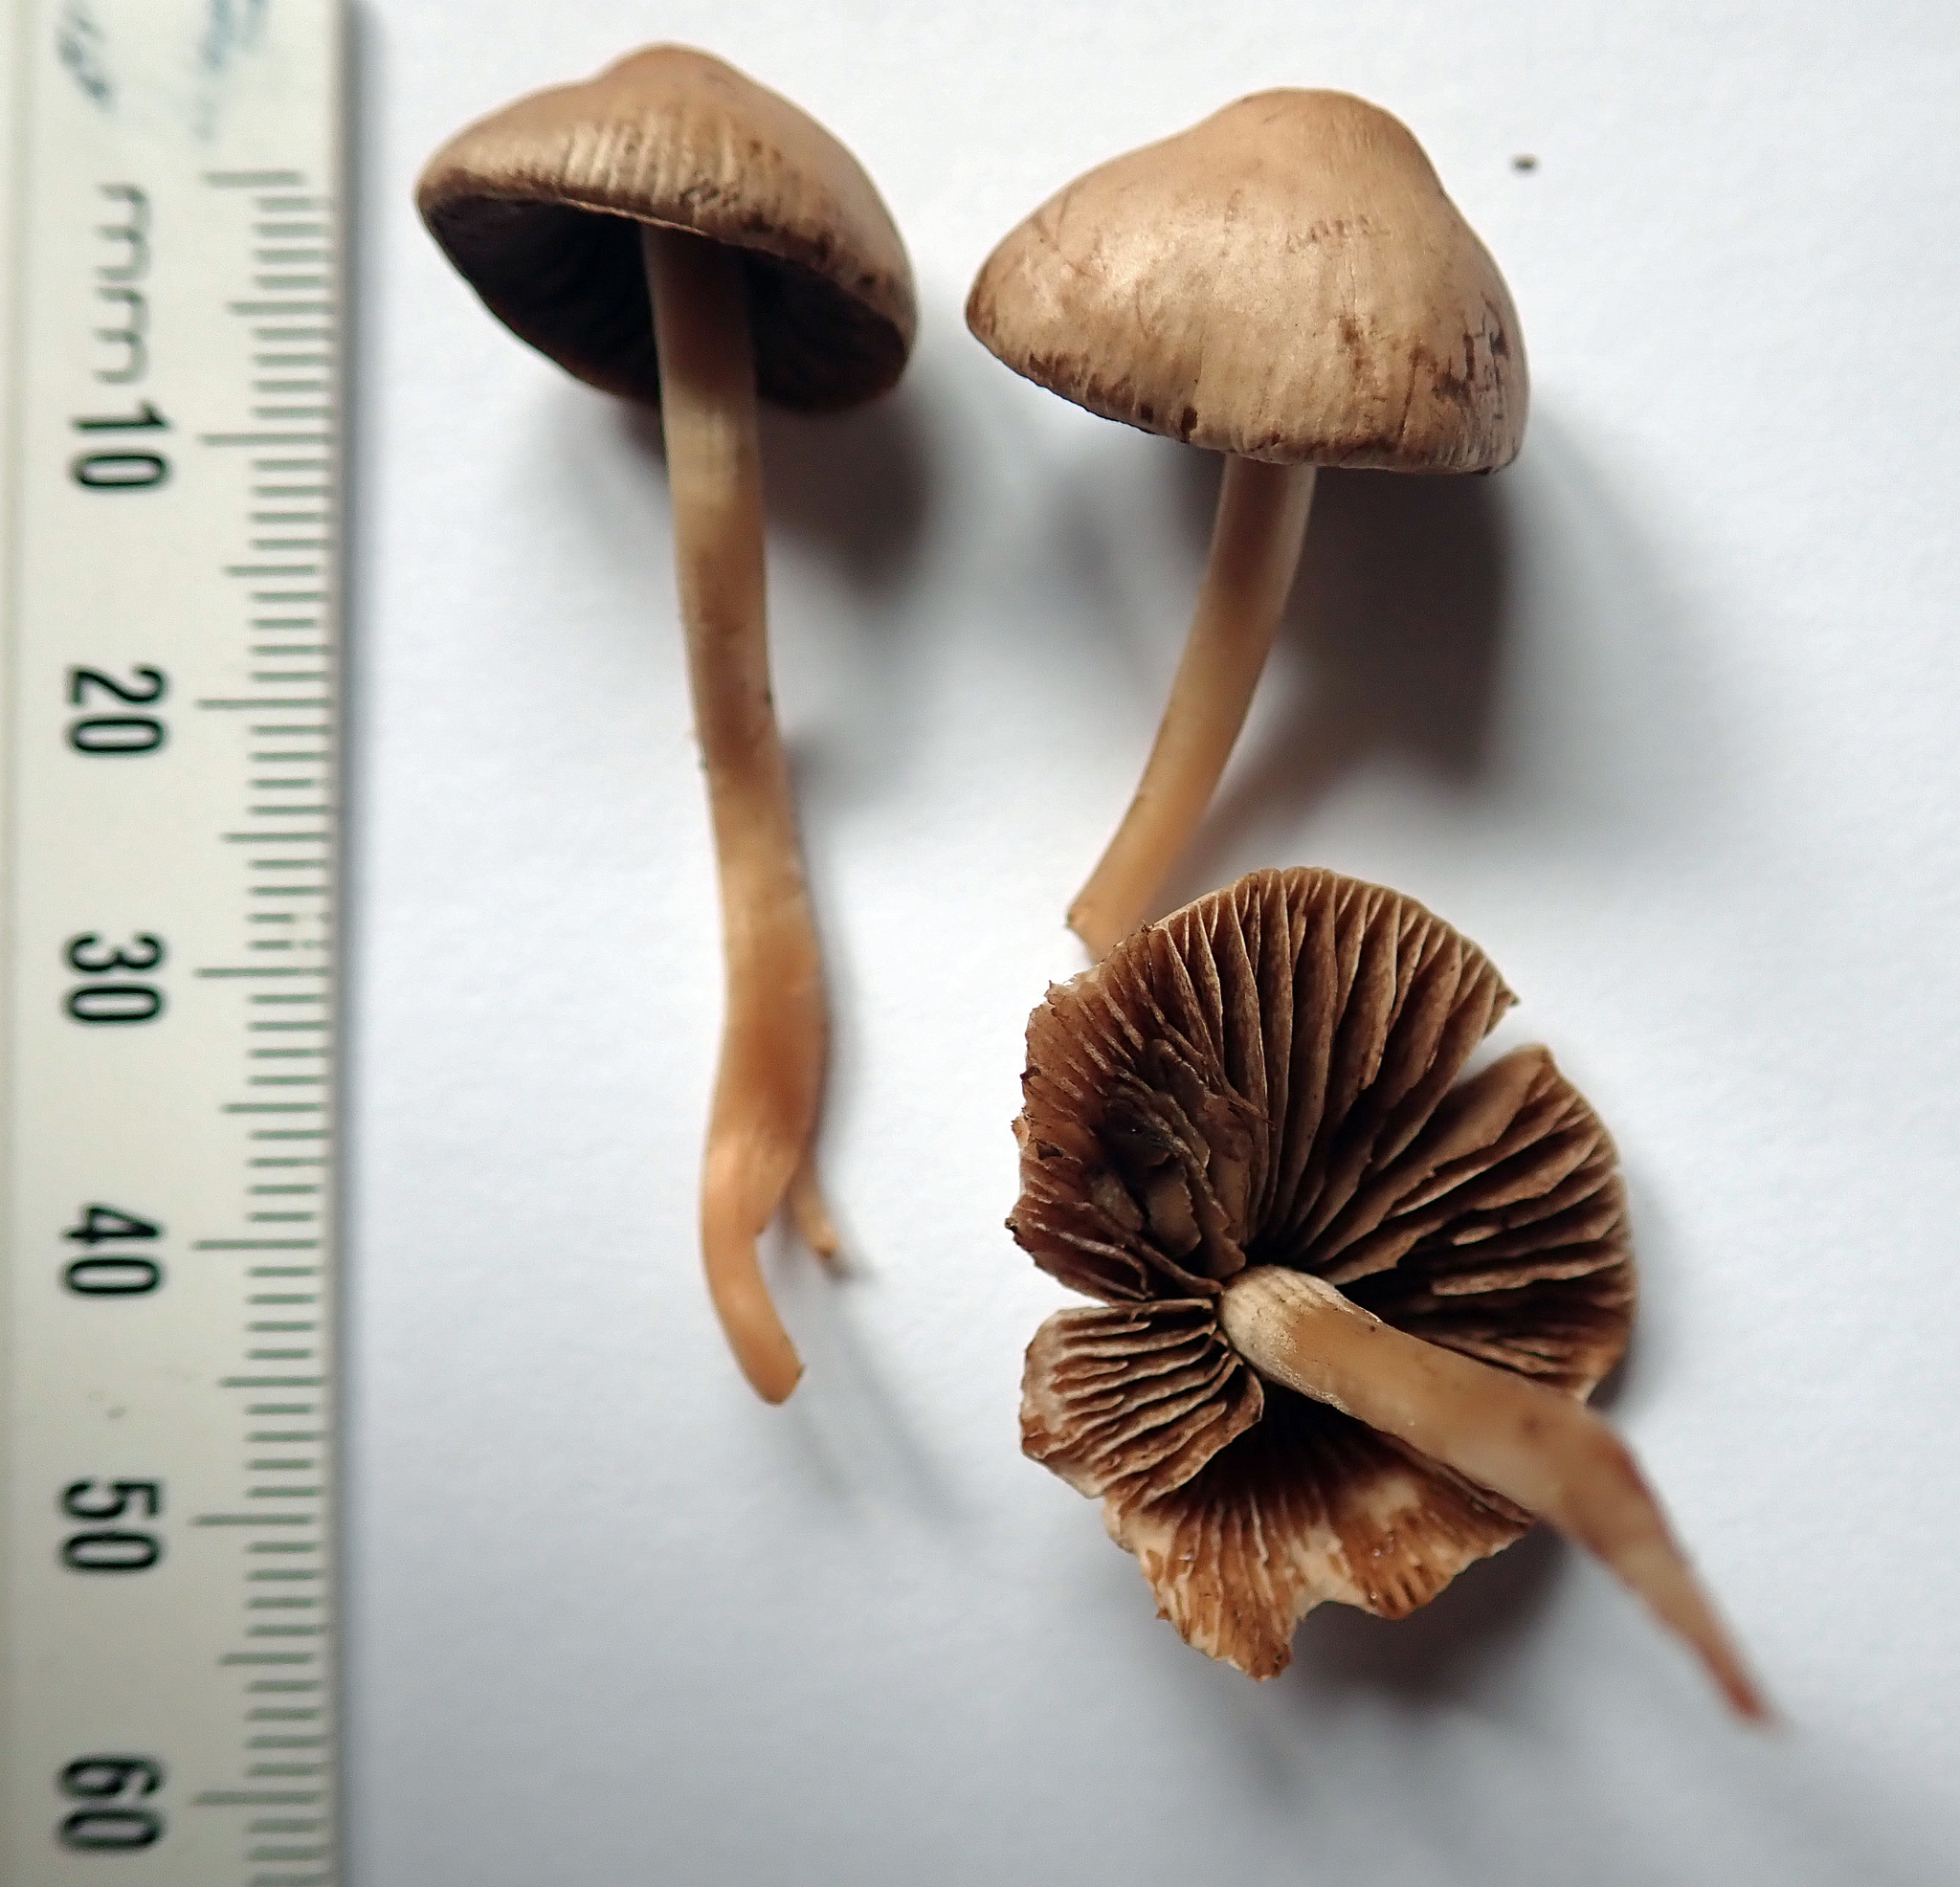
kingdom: Fungi
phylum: Basidiomycota
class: Agaricomycetes
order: Agaricales
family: Bolbitiaceae
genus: Panaeolina
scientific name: Panaeolina foenisecii
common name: Brown hay cap
